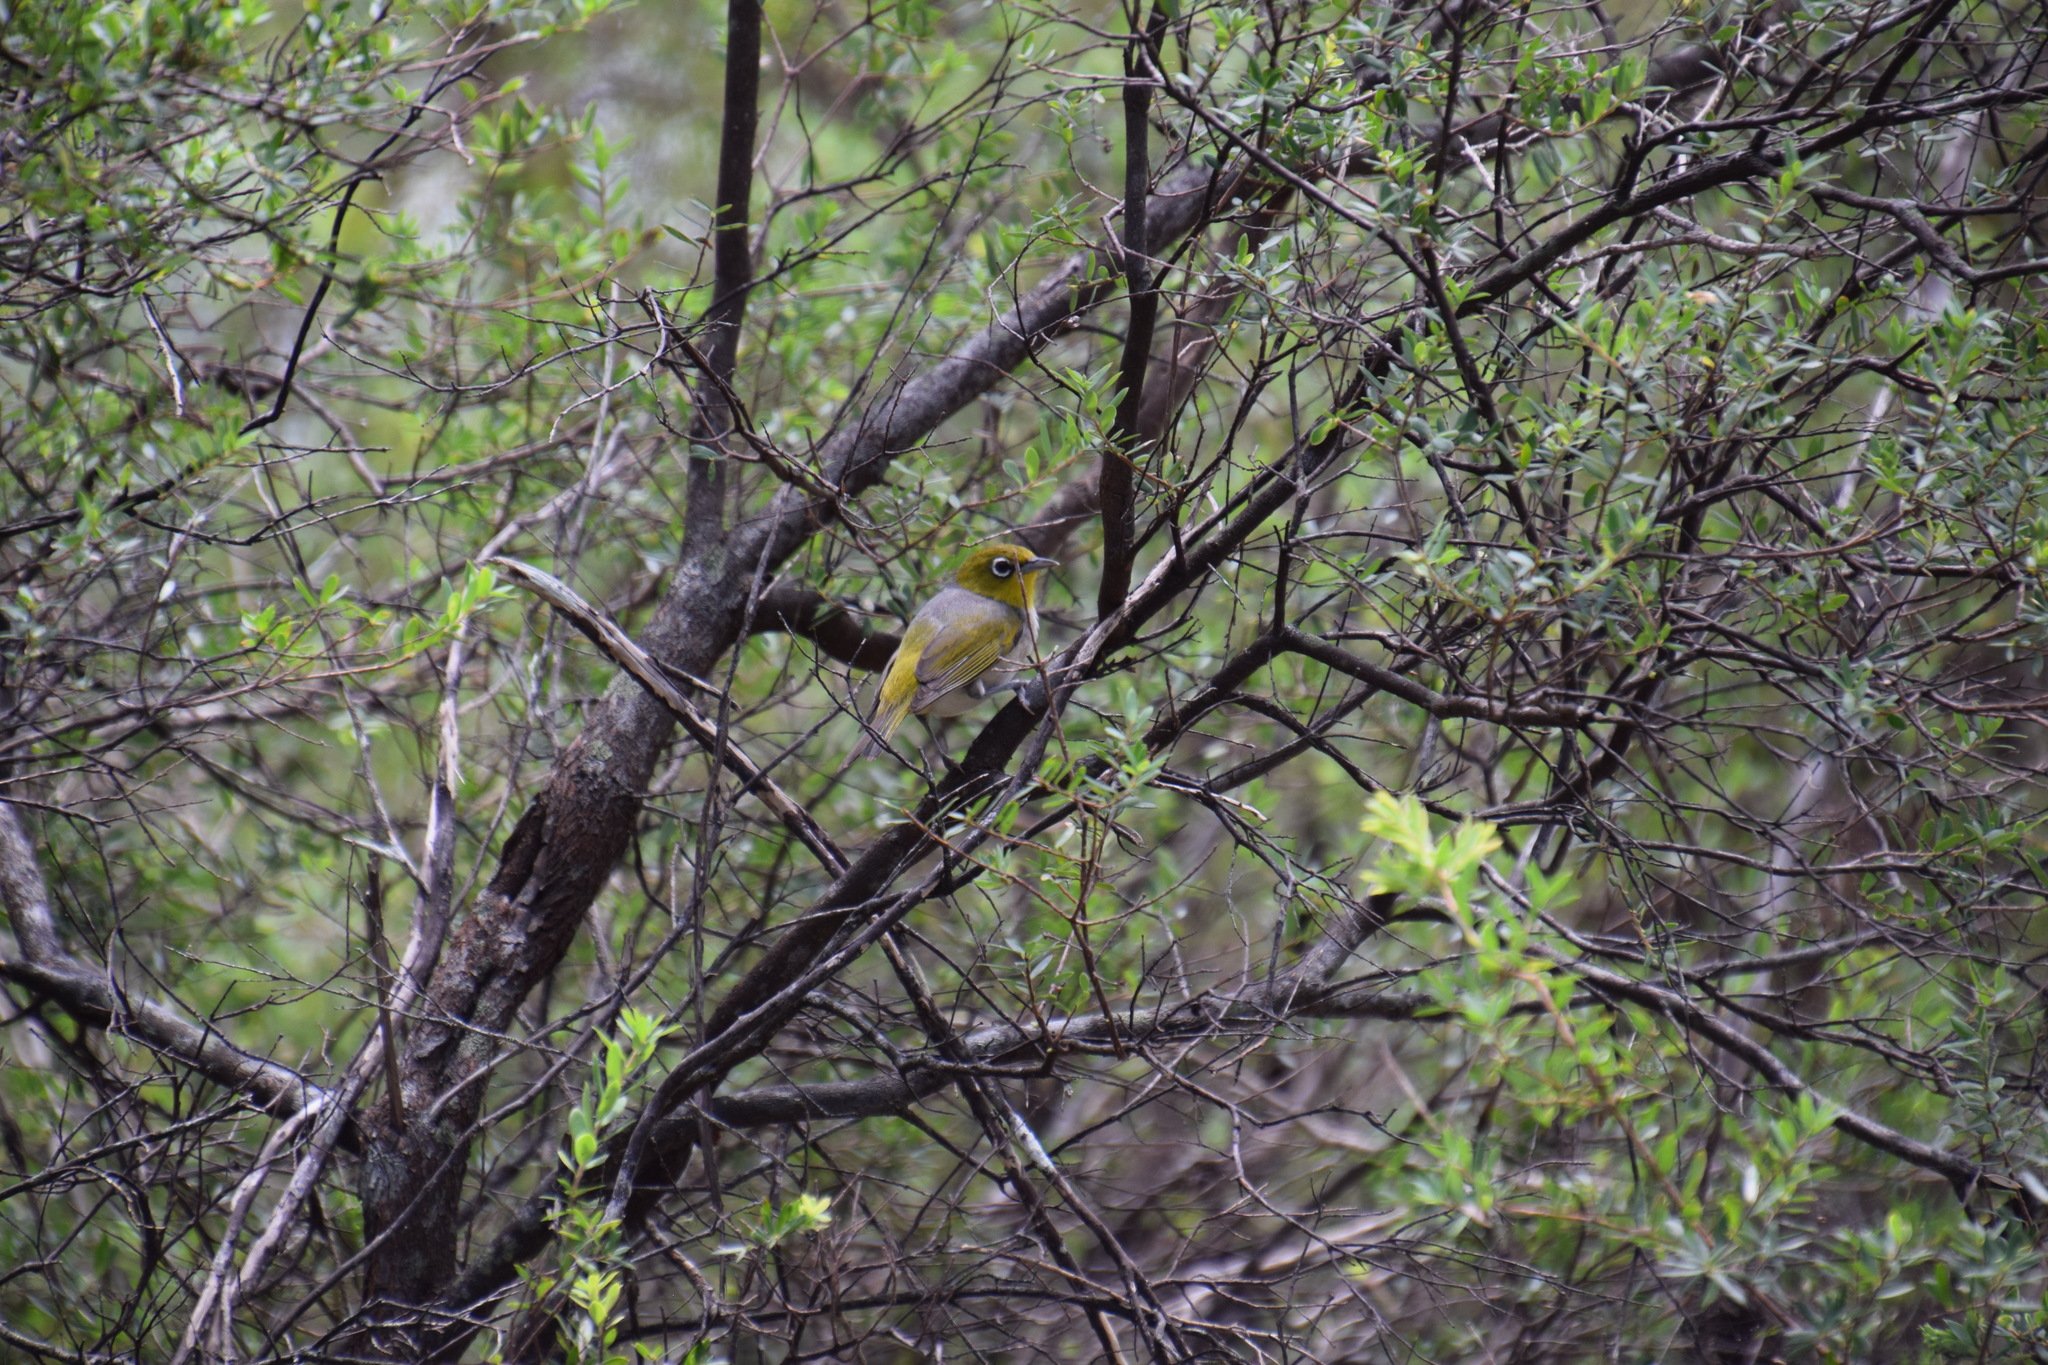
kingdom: Animalia
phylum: Chordata
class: Aves
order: Passeriformes
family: Zosteropidae
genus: Zosterops
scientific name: Zosterops lateralis
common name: Silvereye
